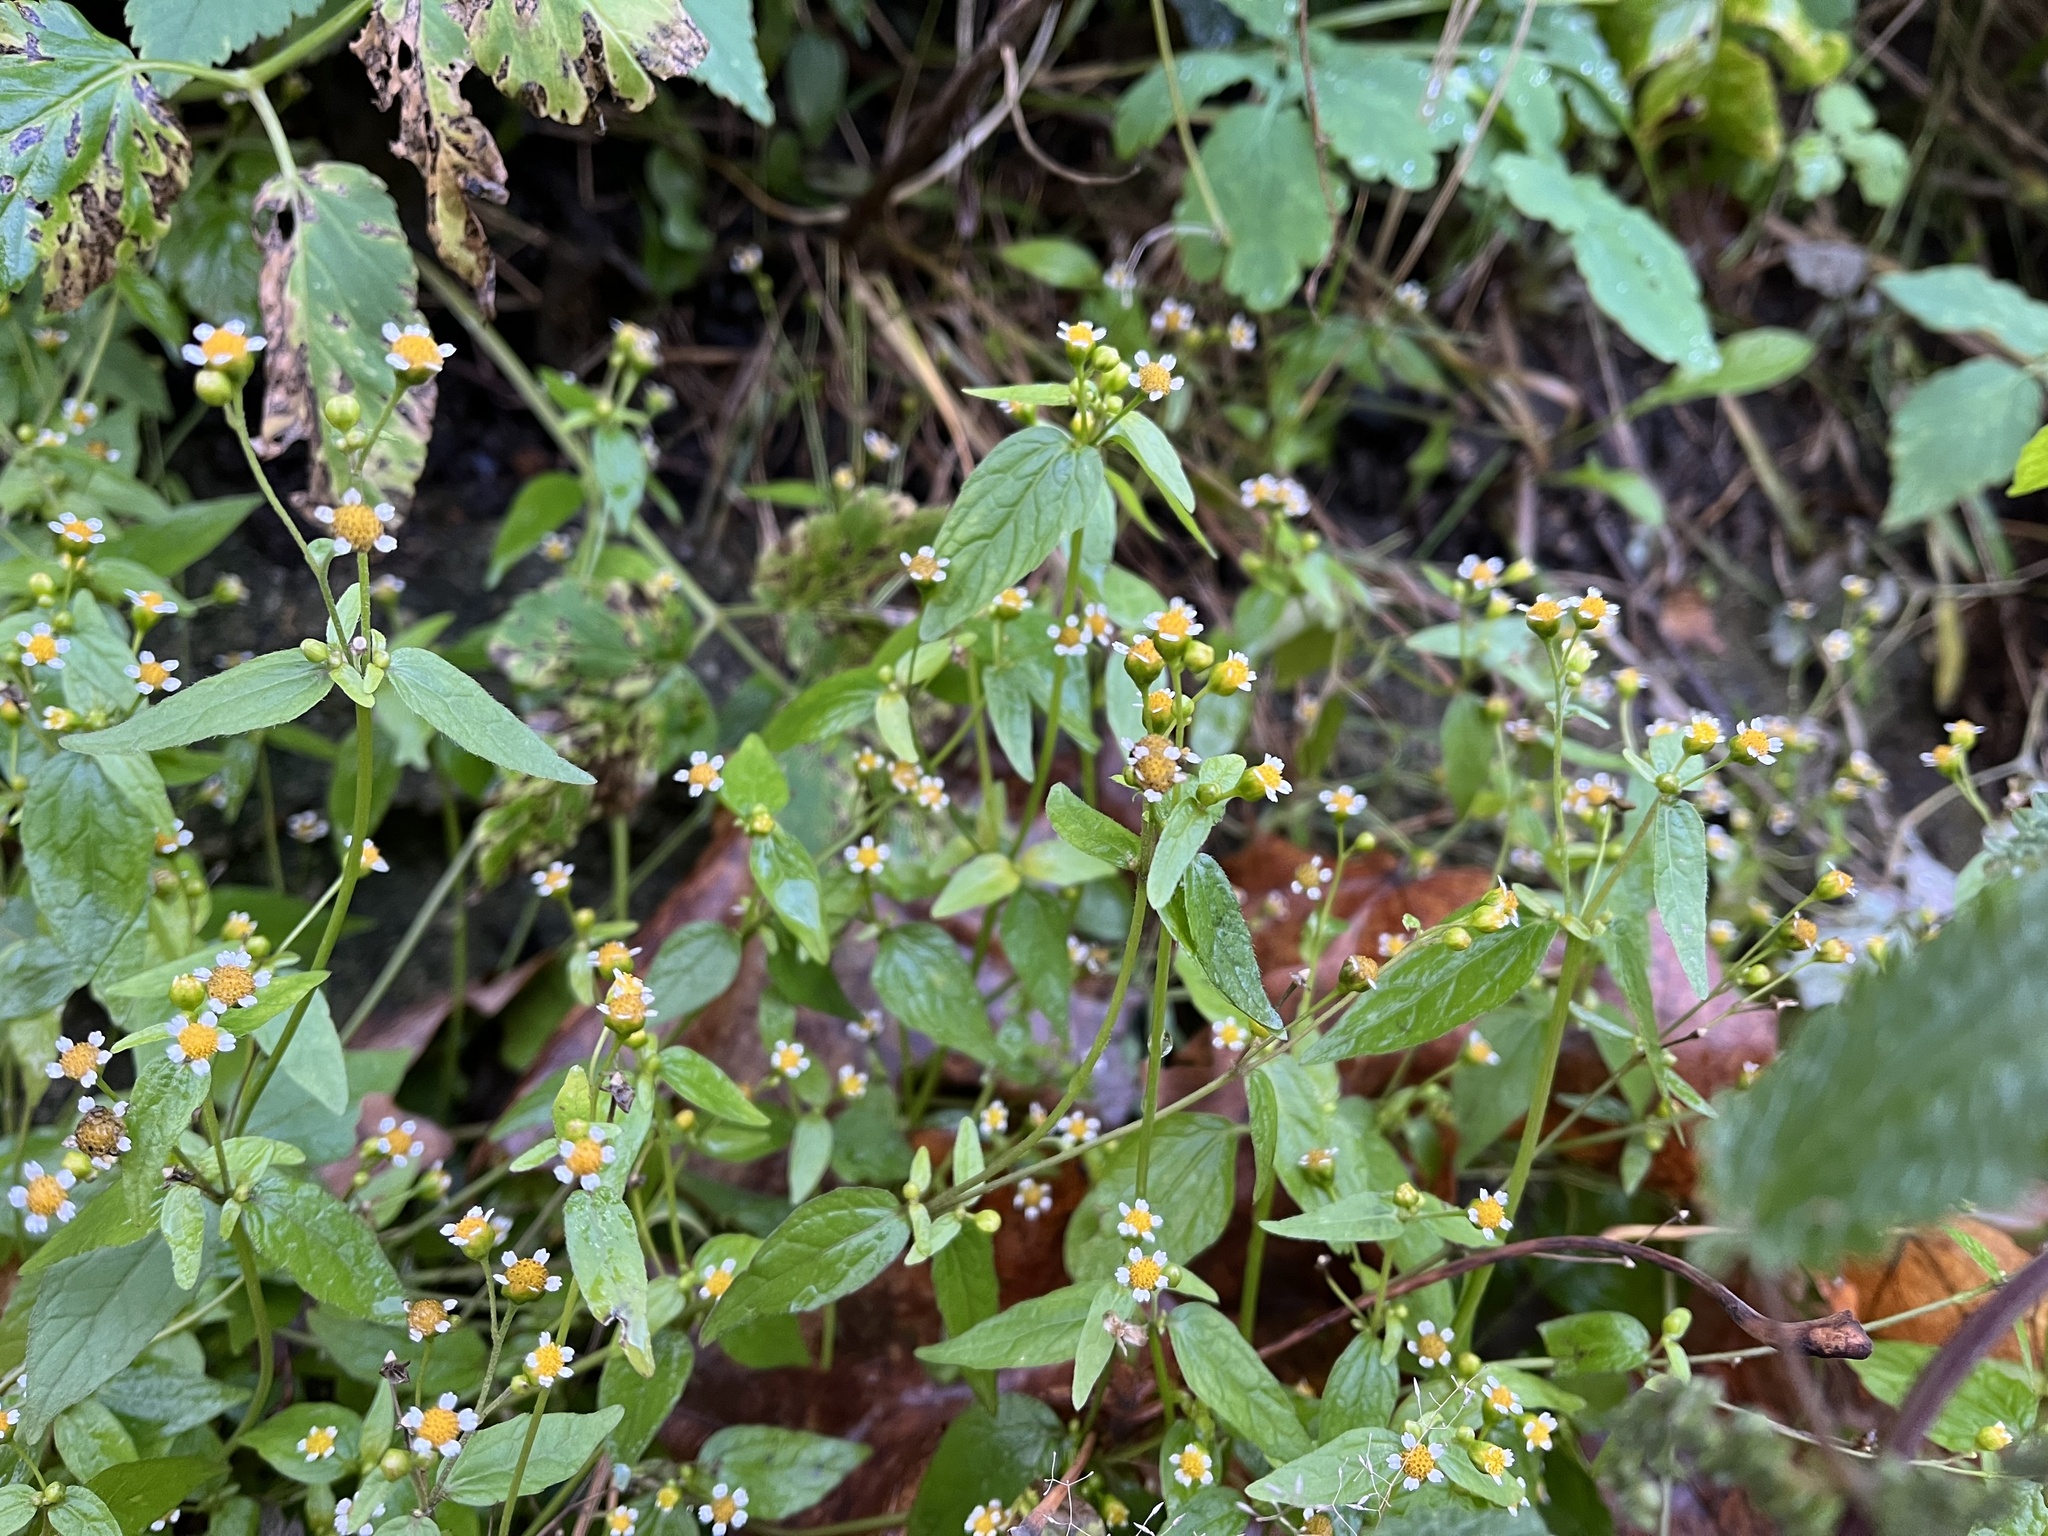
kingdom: Plantae
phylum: Tracheophyta
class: Magnoliopsida
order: Asterales
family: Asteraceae
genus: Galinsoga
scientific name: Galinsoga parviflora
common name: Gallant soldier
